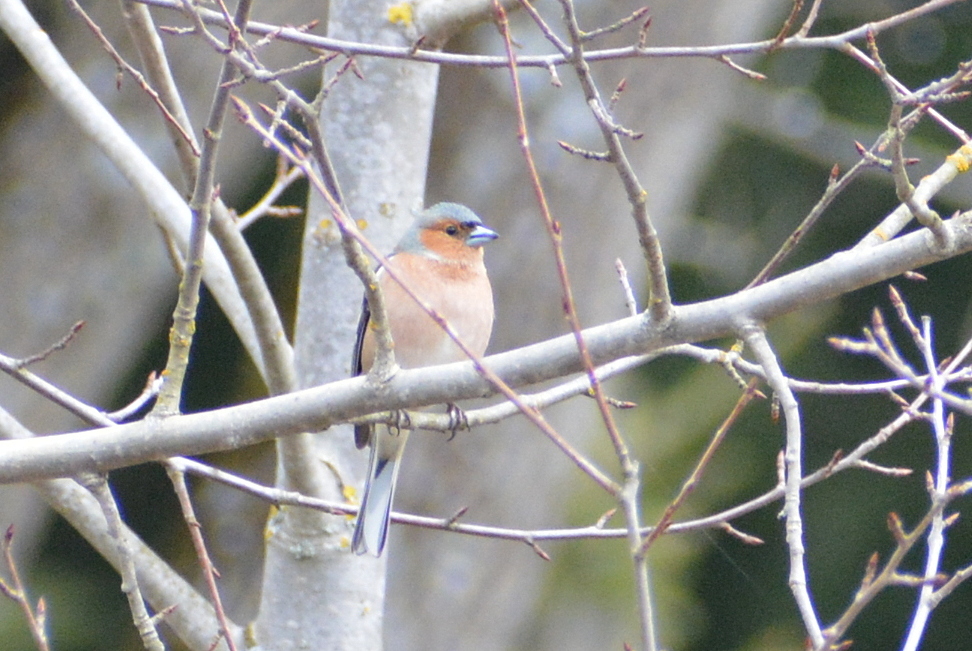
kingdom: Animalia
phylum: Chordata
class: Aves
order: Passeriformes
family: Fringillidae
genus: Fringilla
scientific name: Fringilla coelebs
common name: Common chaffinch
